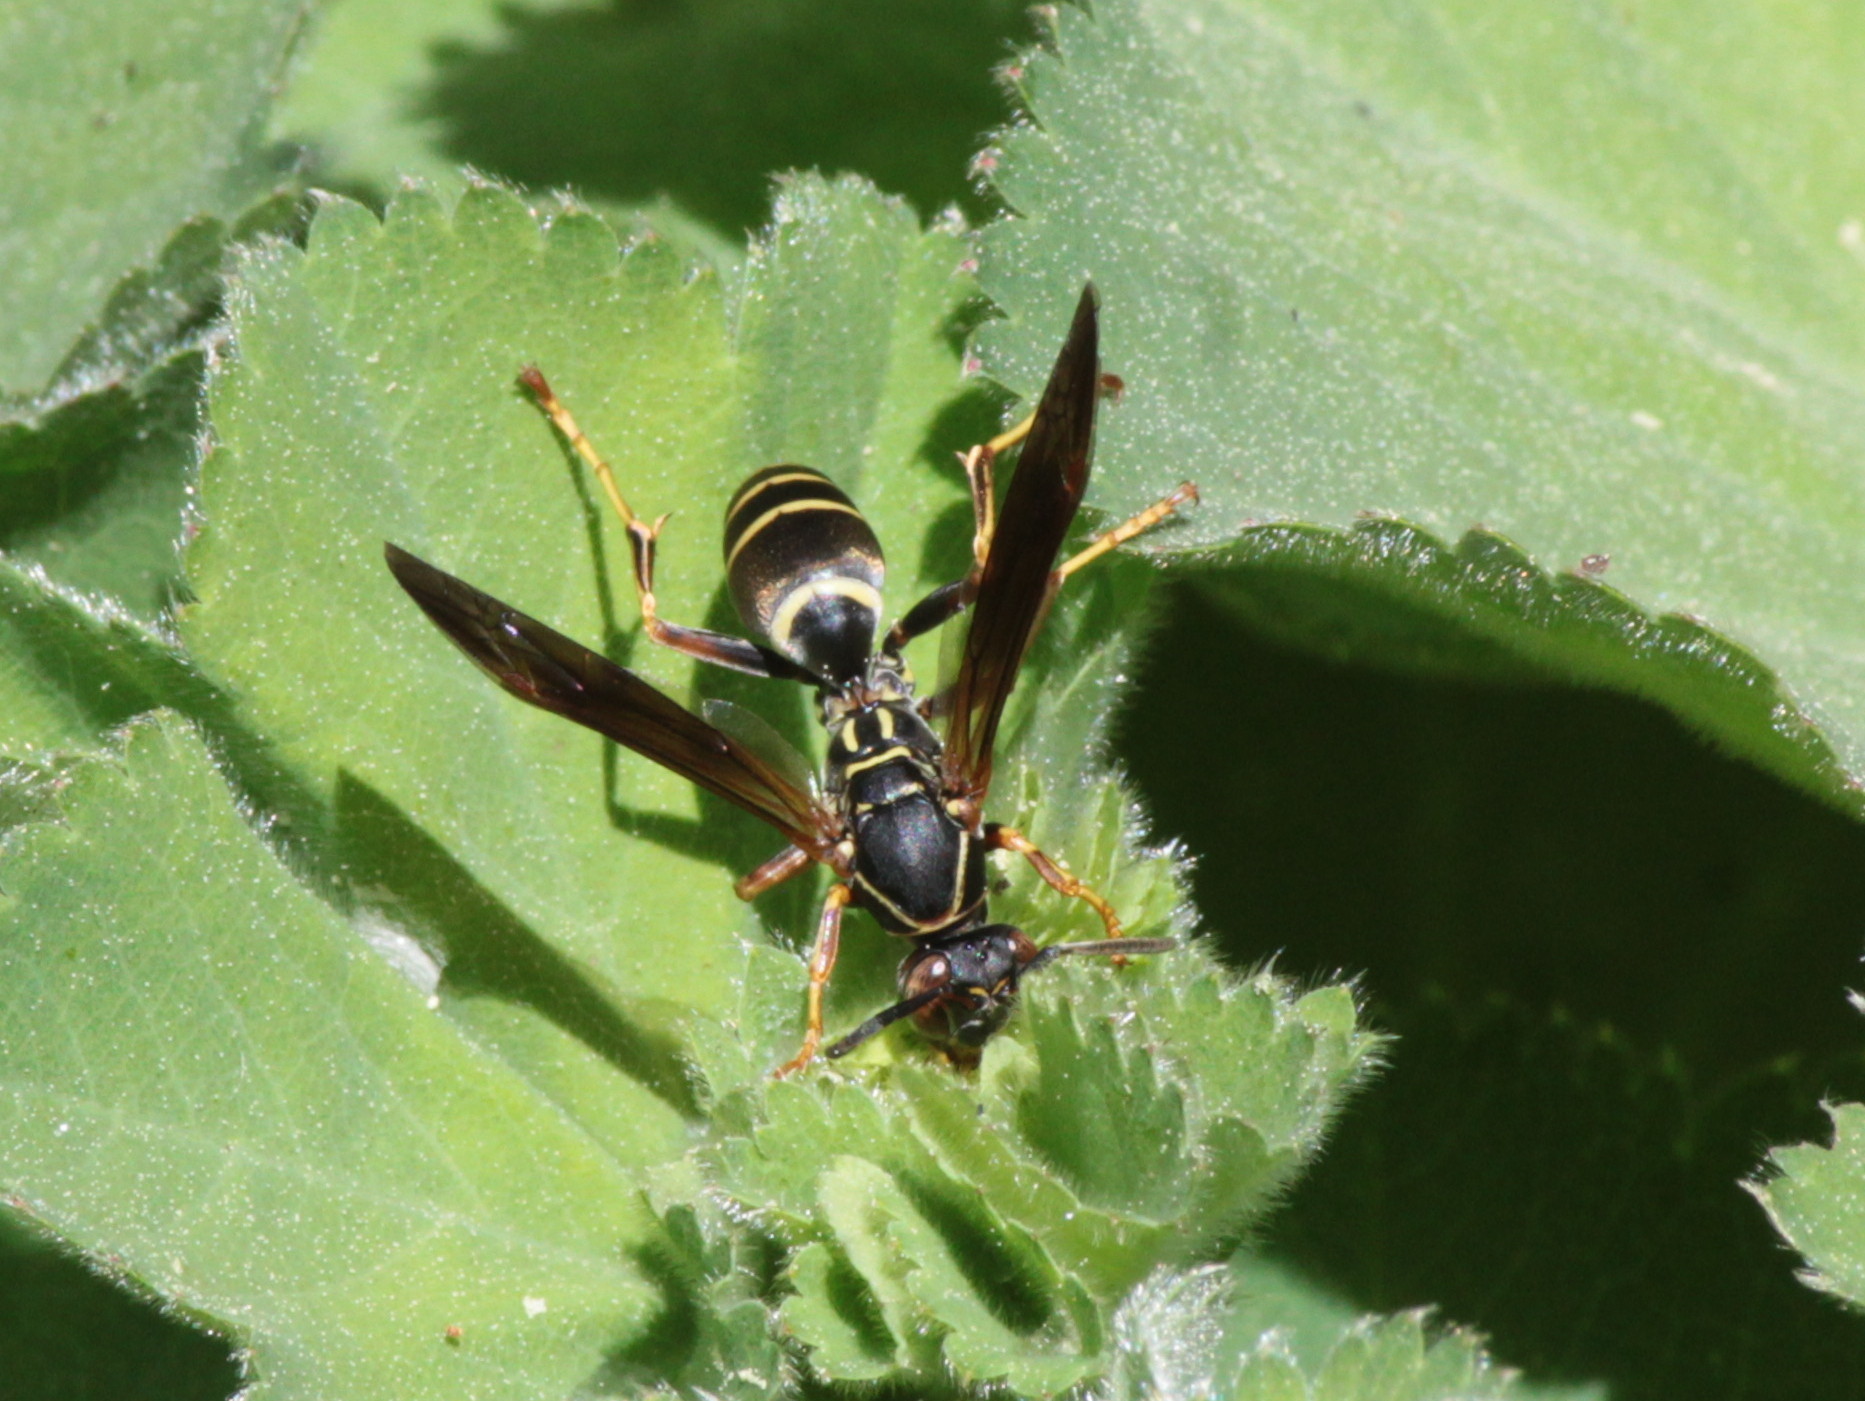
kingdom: Animalia
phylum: Arthropoda
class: Insecta
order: Hymenoptera
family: Eumenidae
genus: Polistes
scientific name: Polistes fuscatus
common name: Dark paper wasp
